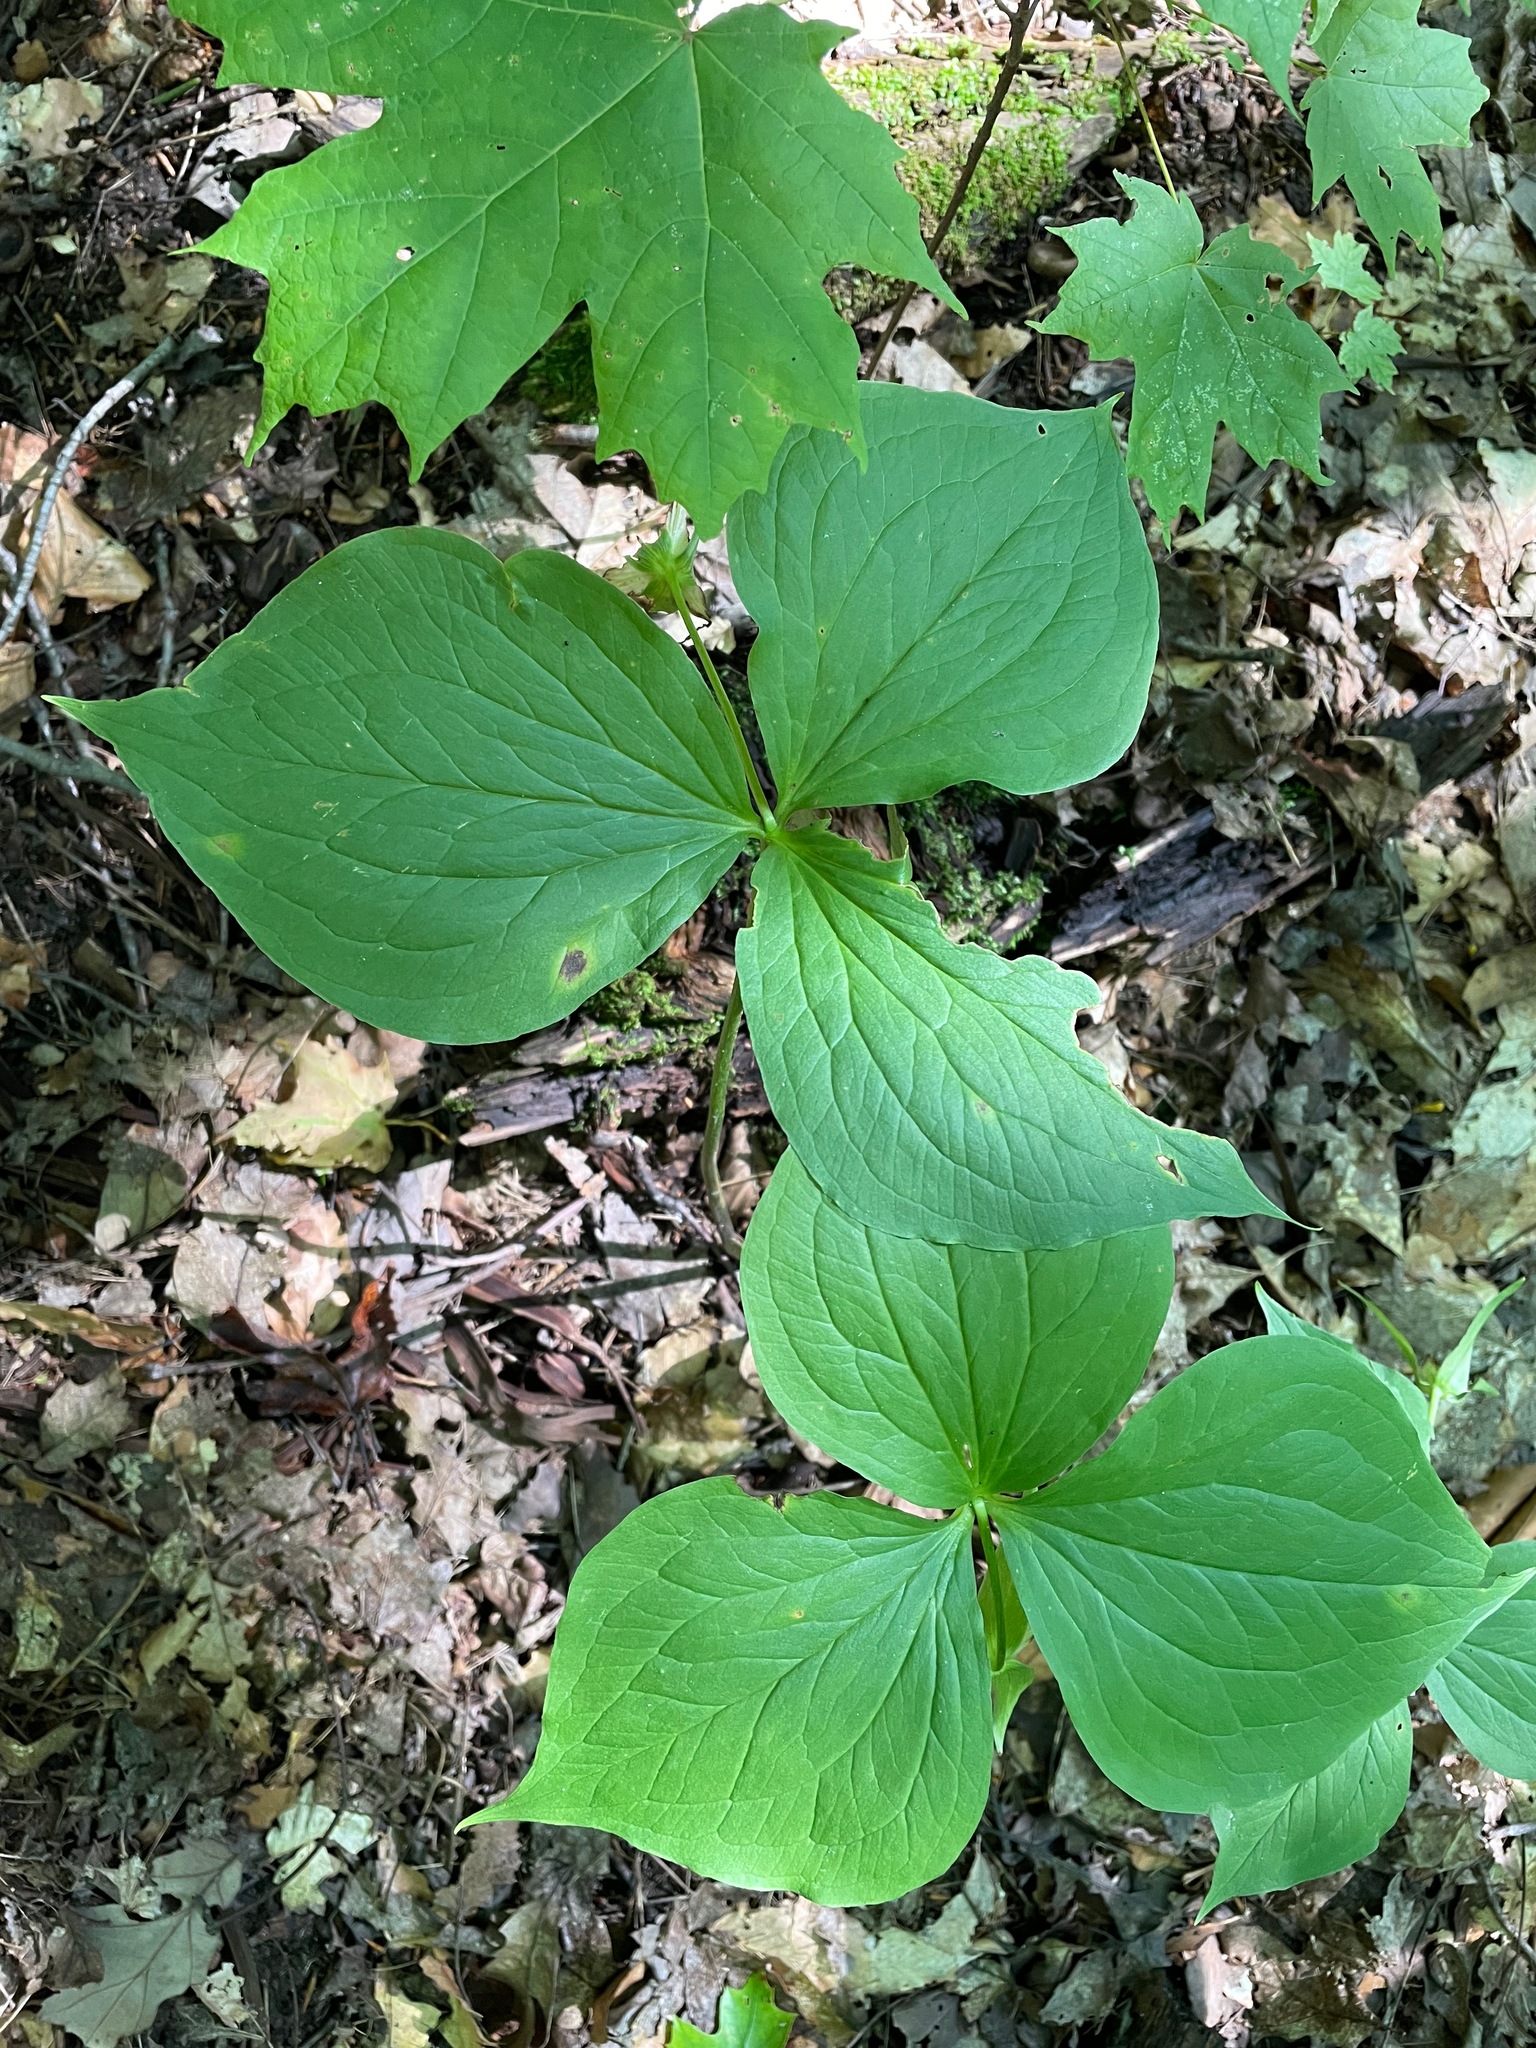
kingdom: Plantae
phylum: Tracheophyta
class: Liliopsida
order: Liliales
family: Melanthiaceae
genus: Trillium
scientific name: Trillium grandiflorum
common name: Great white trillium
